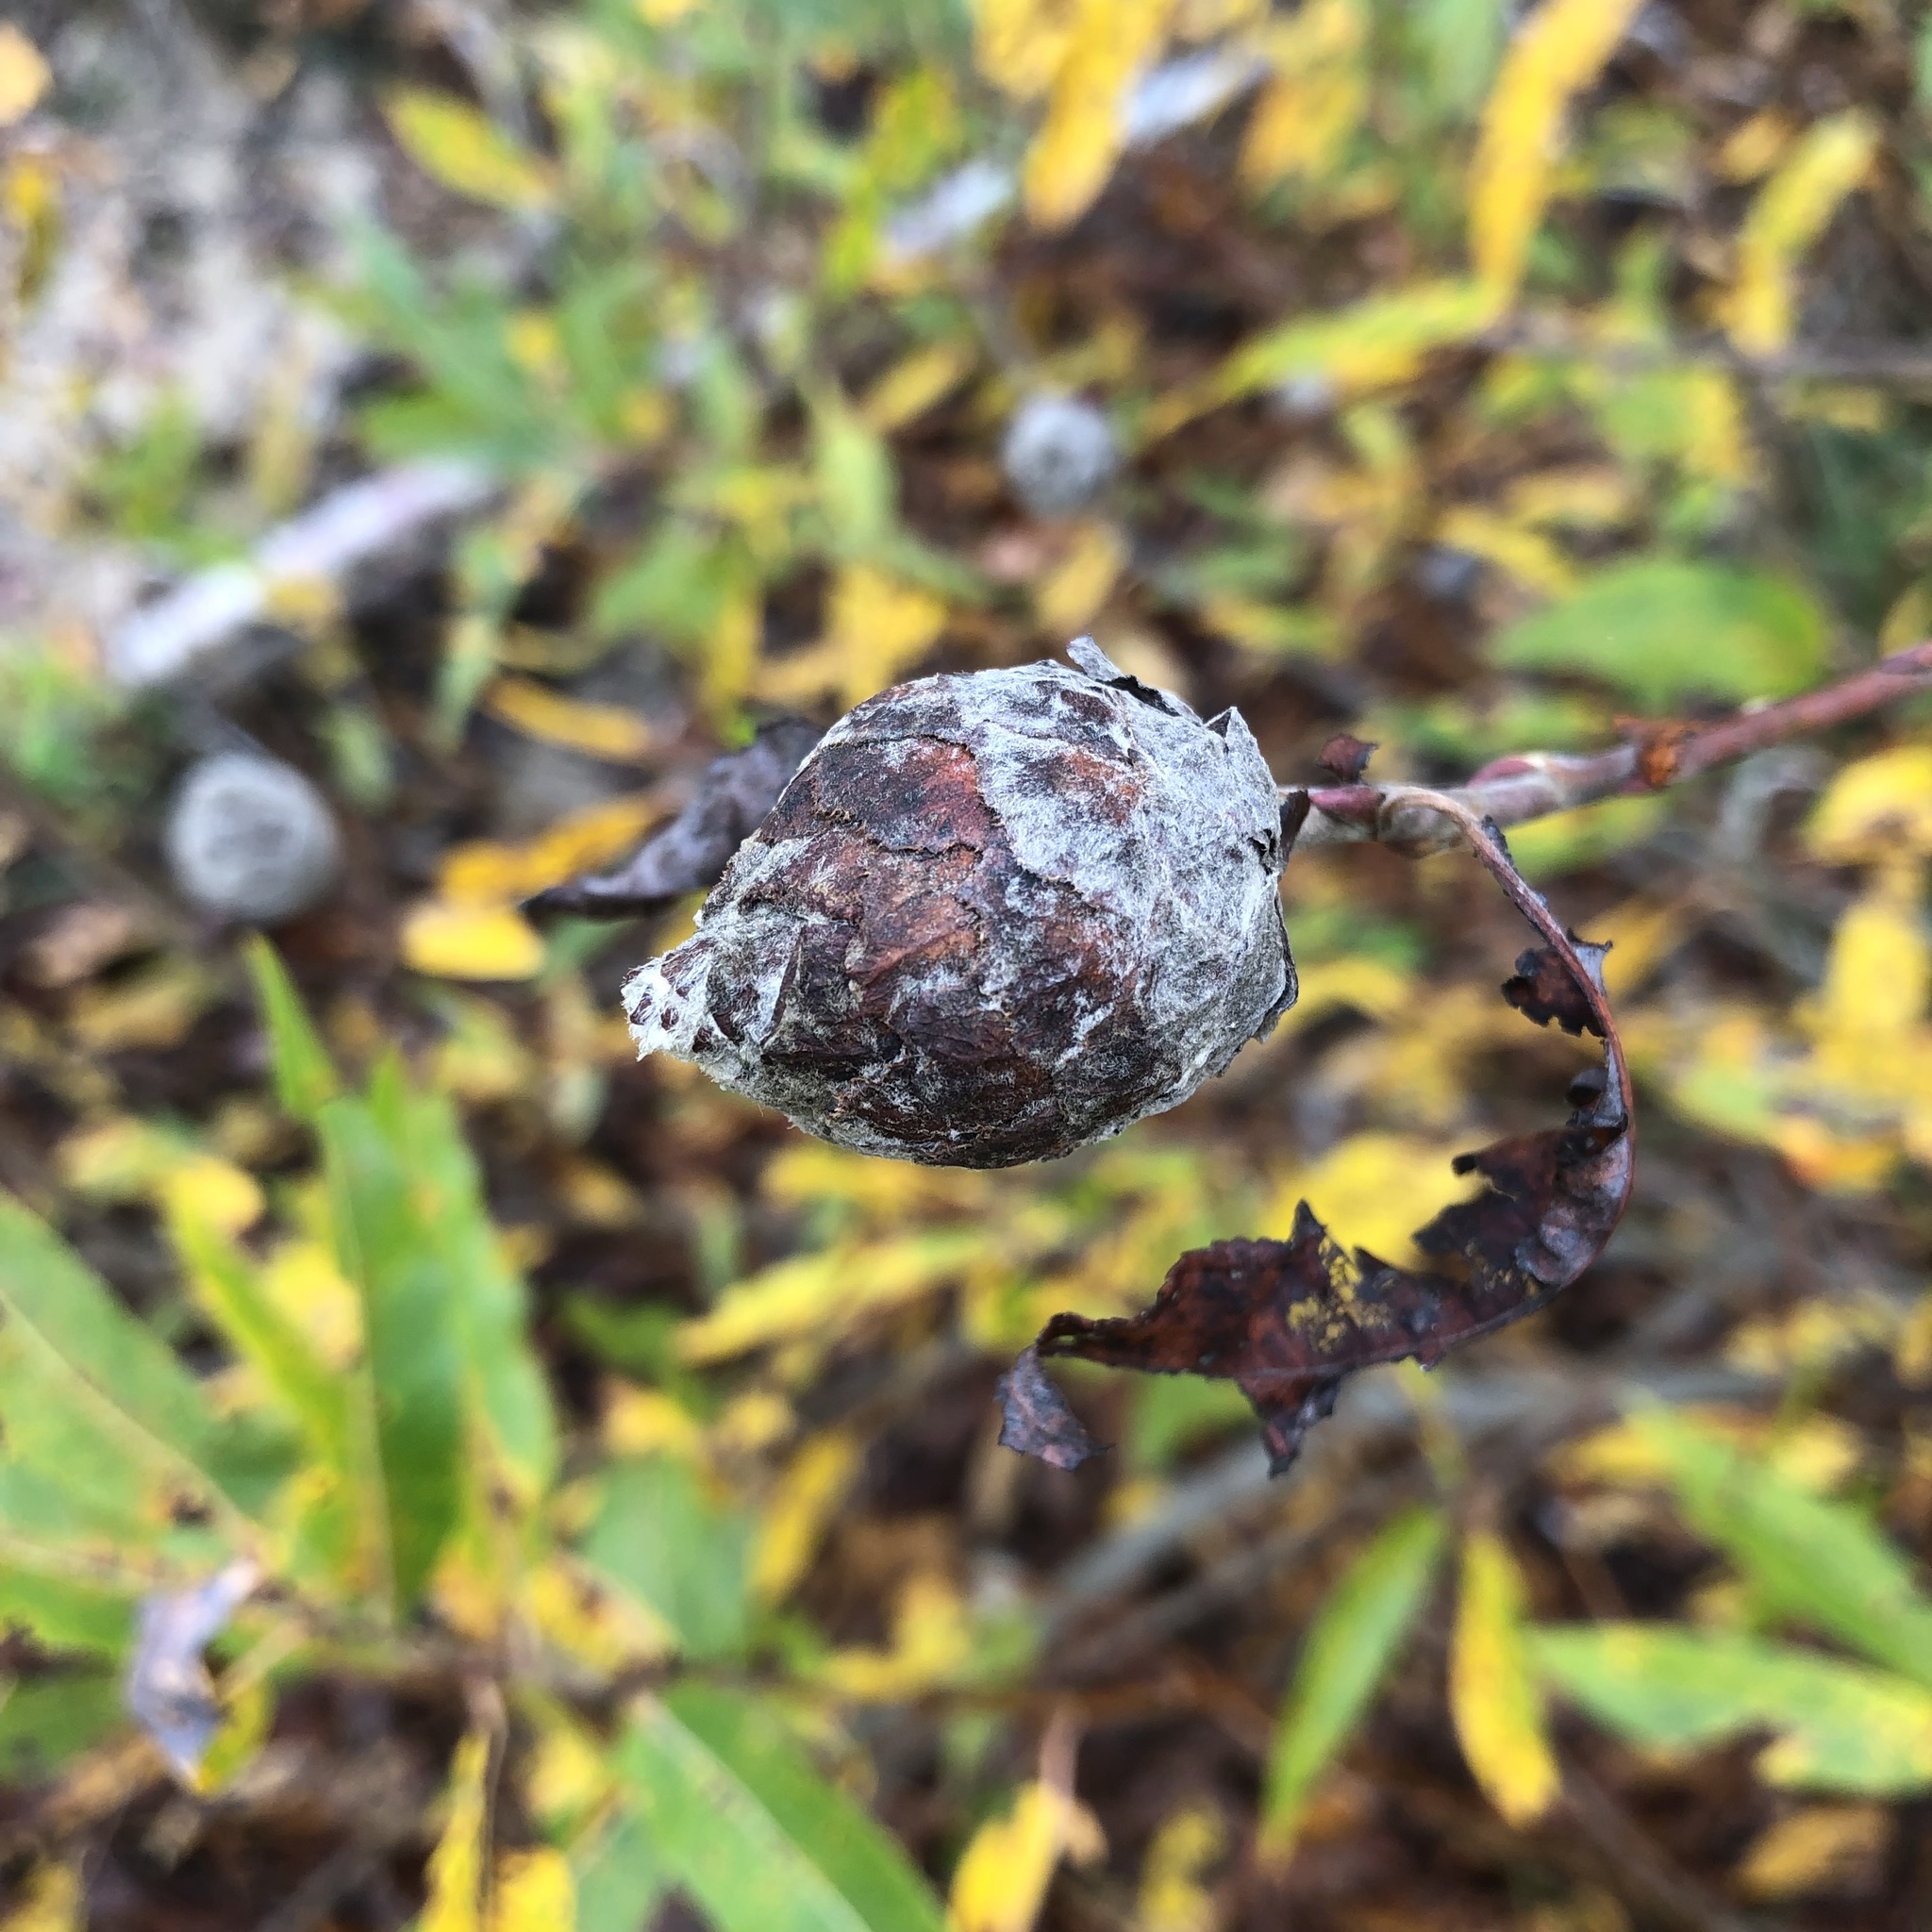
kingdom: Animalia
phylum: Arthropoda
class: Insecta
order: Diptera
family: Cecidomyiidae
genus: Rabdophaga
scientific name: Rabdophaga strobiloides
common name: Willow pinecone gall midge
